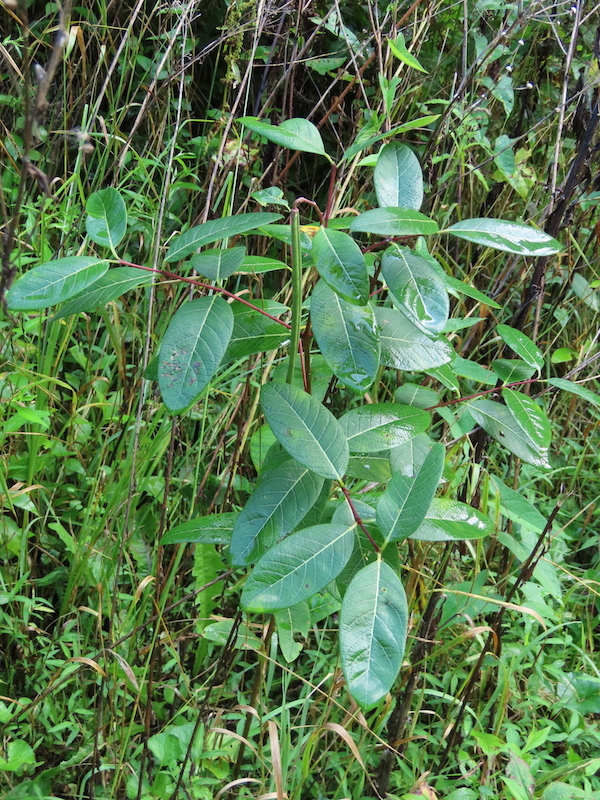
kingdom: Plantae
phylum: Tracheophyta
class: Magnoliopsida
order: Gentianales
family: Apocynaceae
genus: Apocynum
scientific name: Apocynum cannabinum
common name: Hemp dogbane
